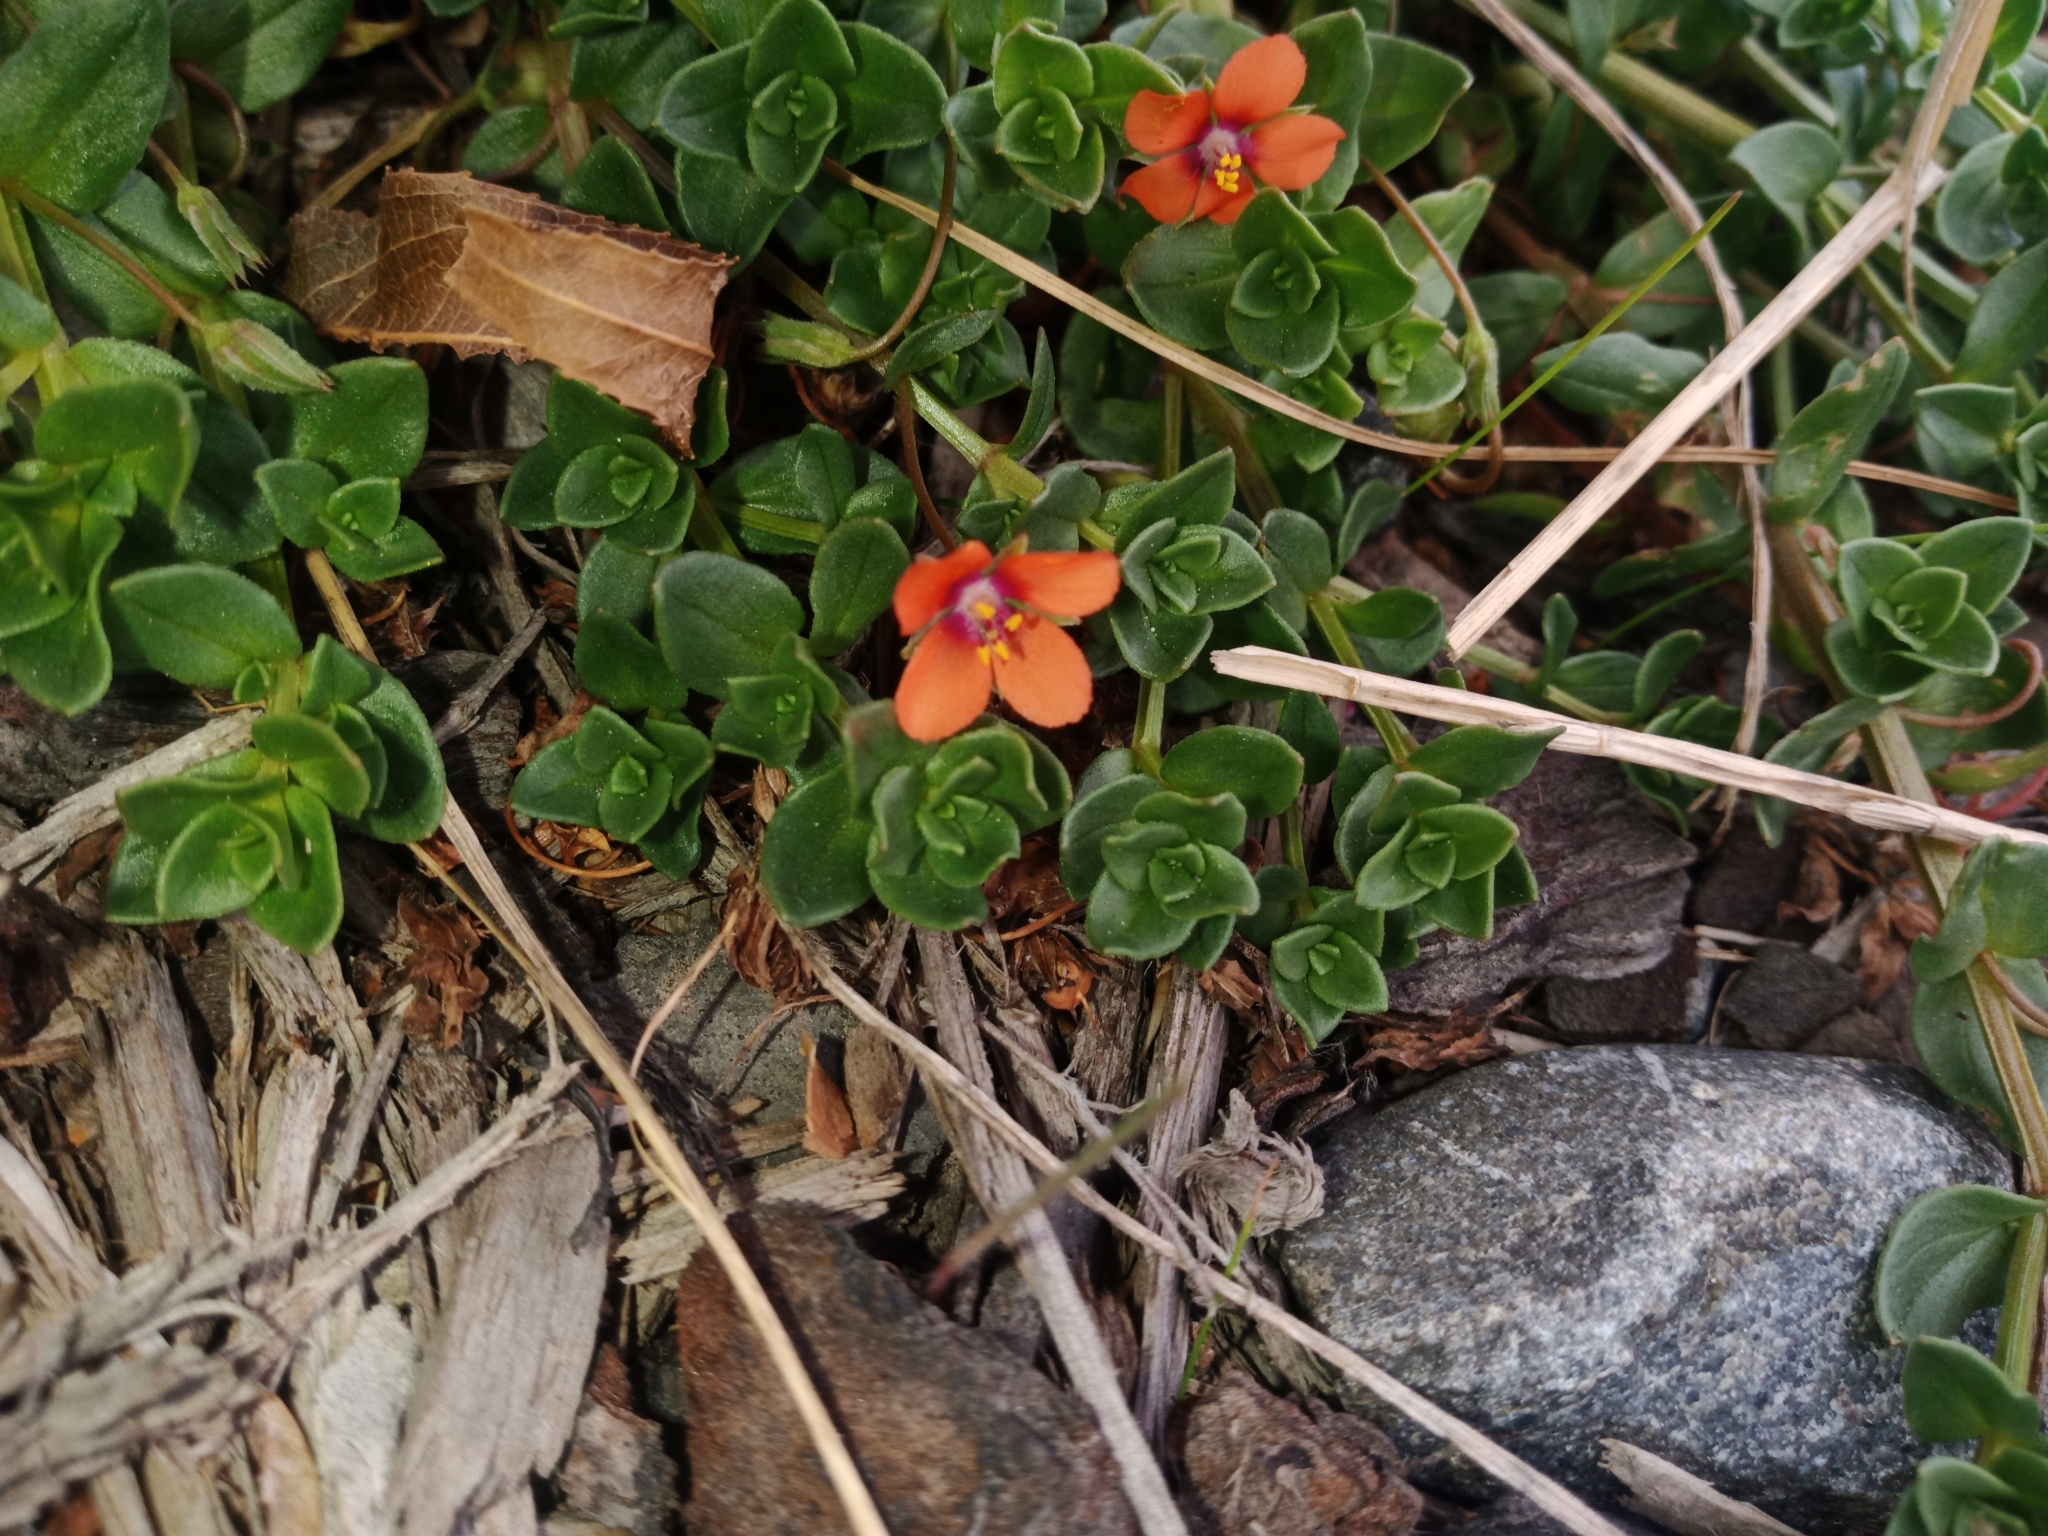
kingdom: Plantae
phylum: Tracheophyta
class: Magnoliopsida
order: Ericales
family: Primulaceae
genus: Lysimachia
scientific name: Lysimachia arvensis
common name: Scarlet pimpernel
